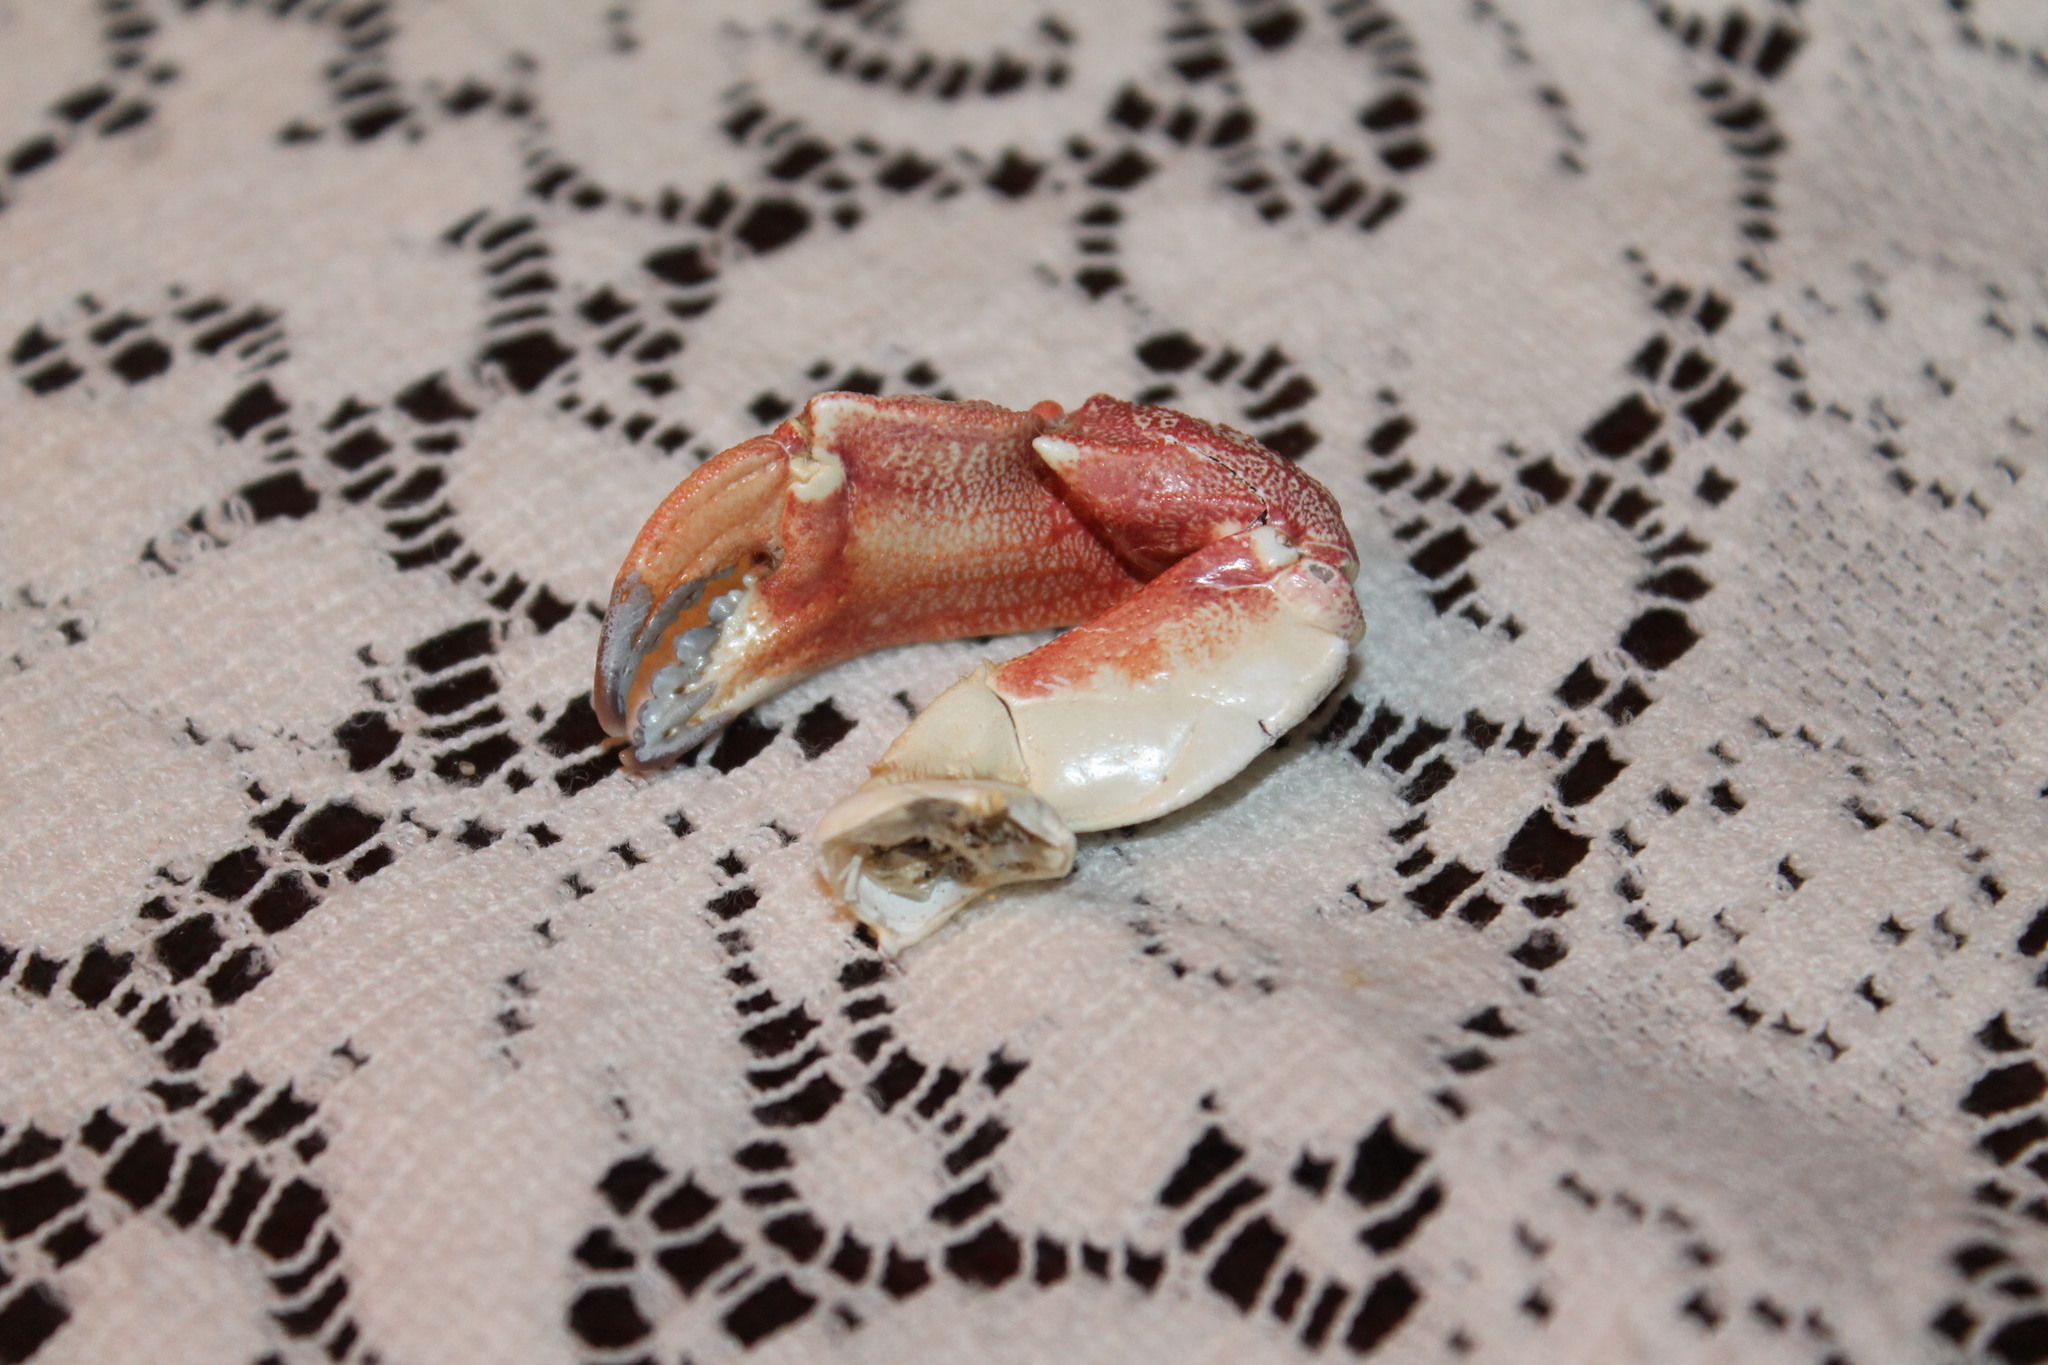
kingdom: Animalia
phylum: Arthropoda
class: Malacostraca
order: Decapoda
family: Cancridae
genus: Cancer
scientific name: Cancer irroratus
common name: Atlantic rock crab
